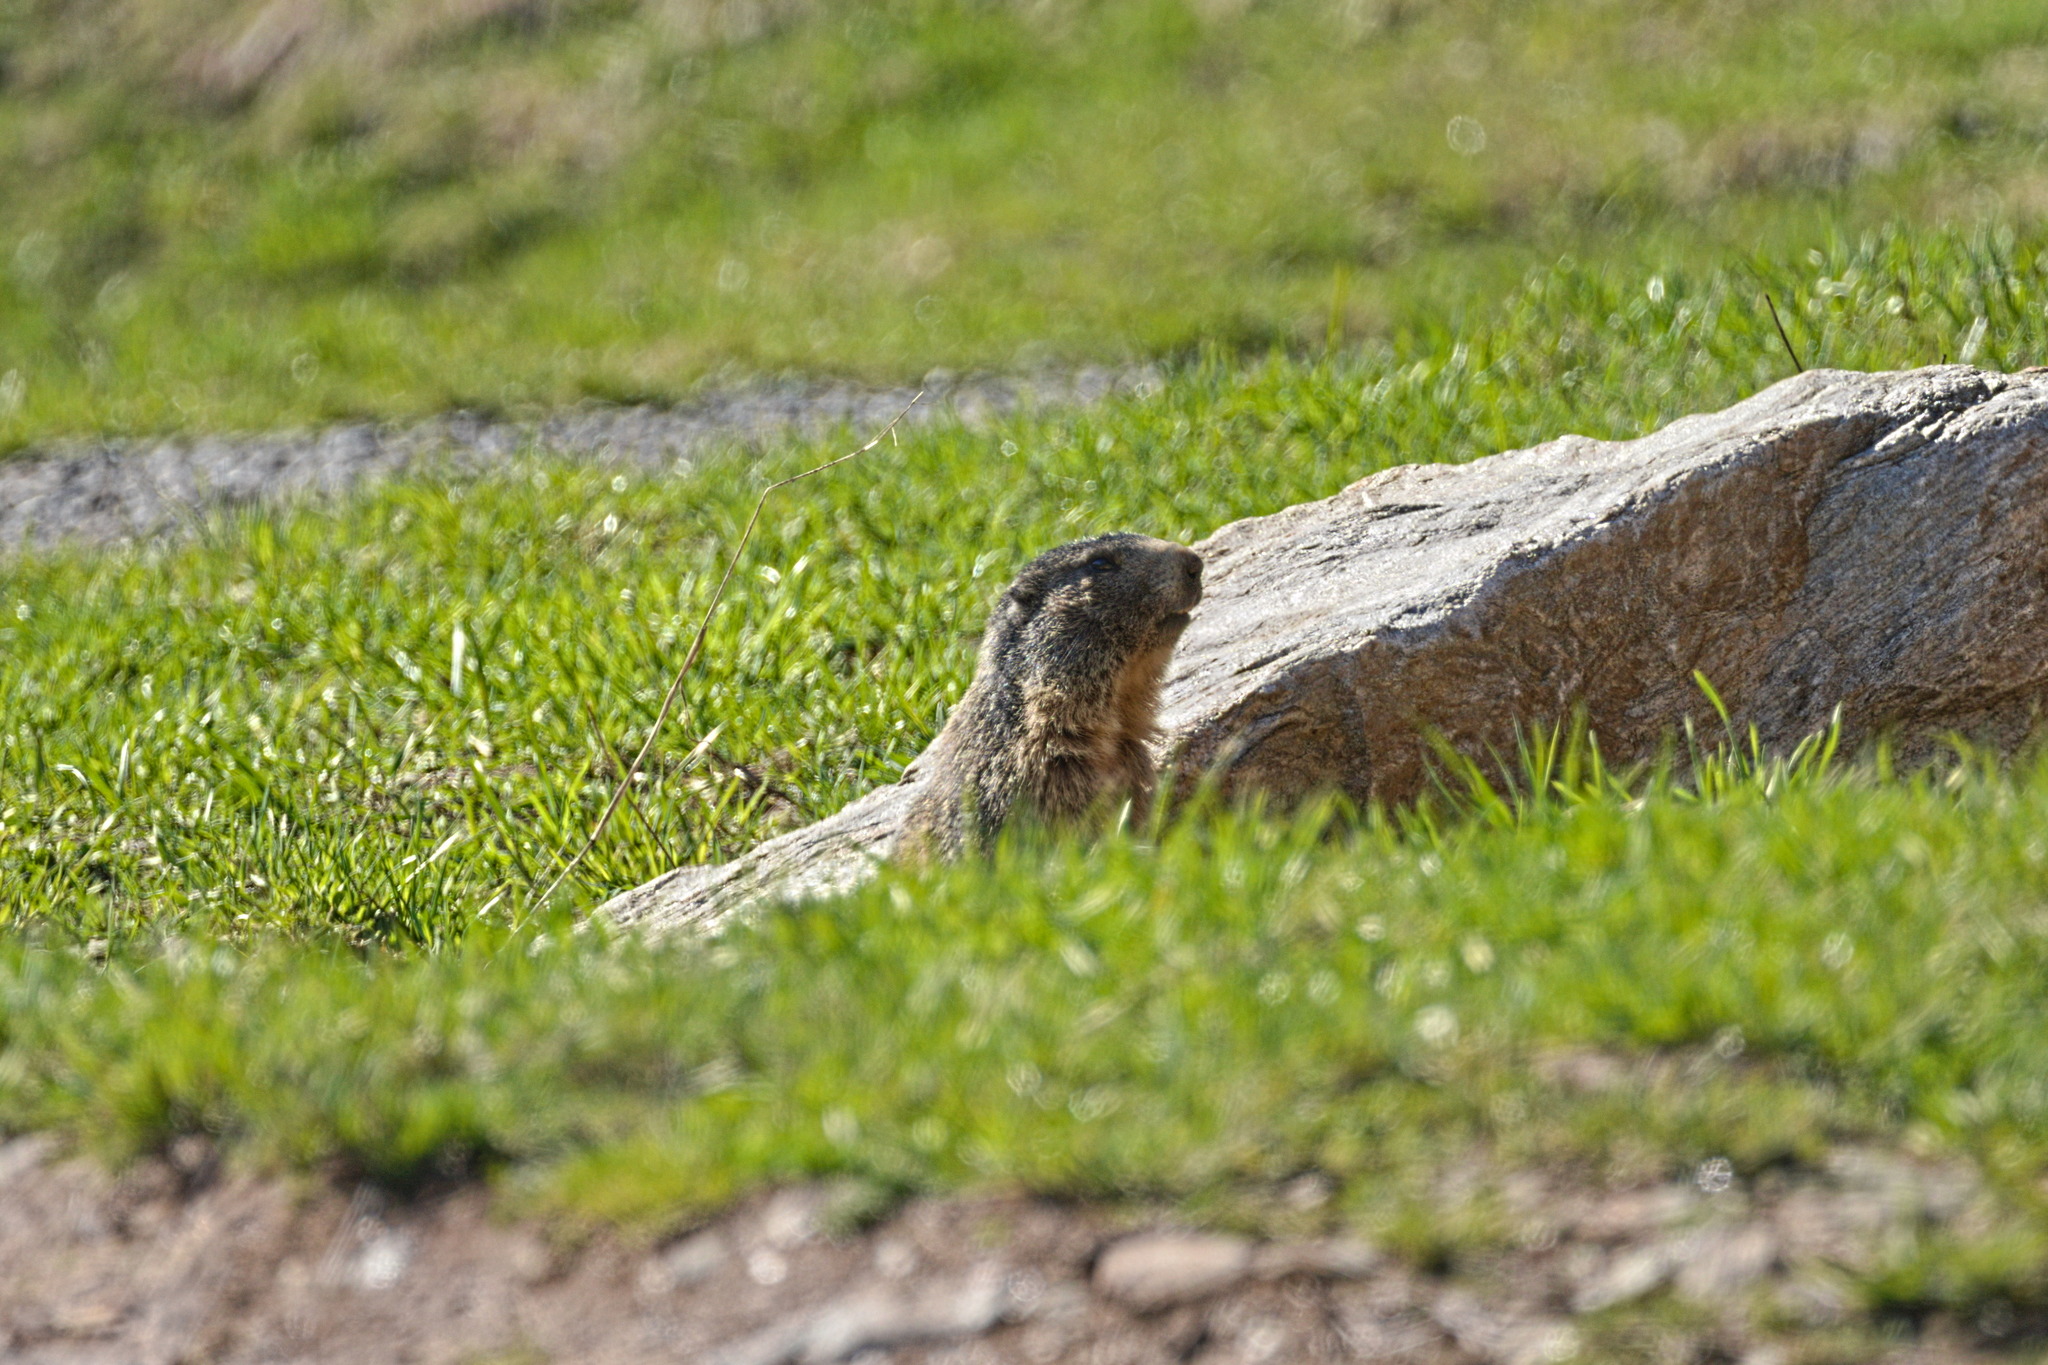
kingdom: Animalia
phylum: Chordata
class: Mammalia
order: Rodentia
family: Sciuridae
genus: Marmota
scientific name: Marmota marmota
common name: Alpine marmot
